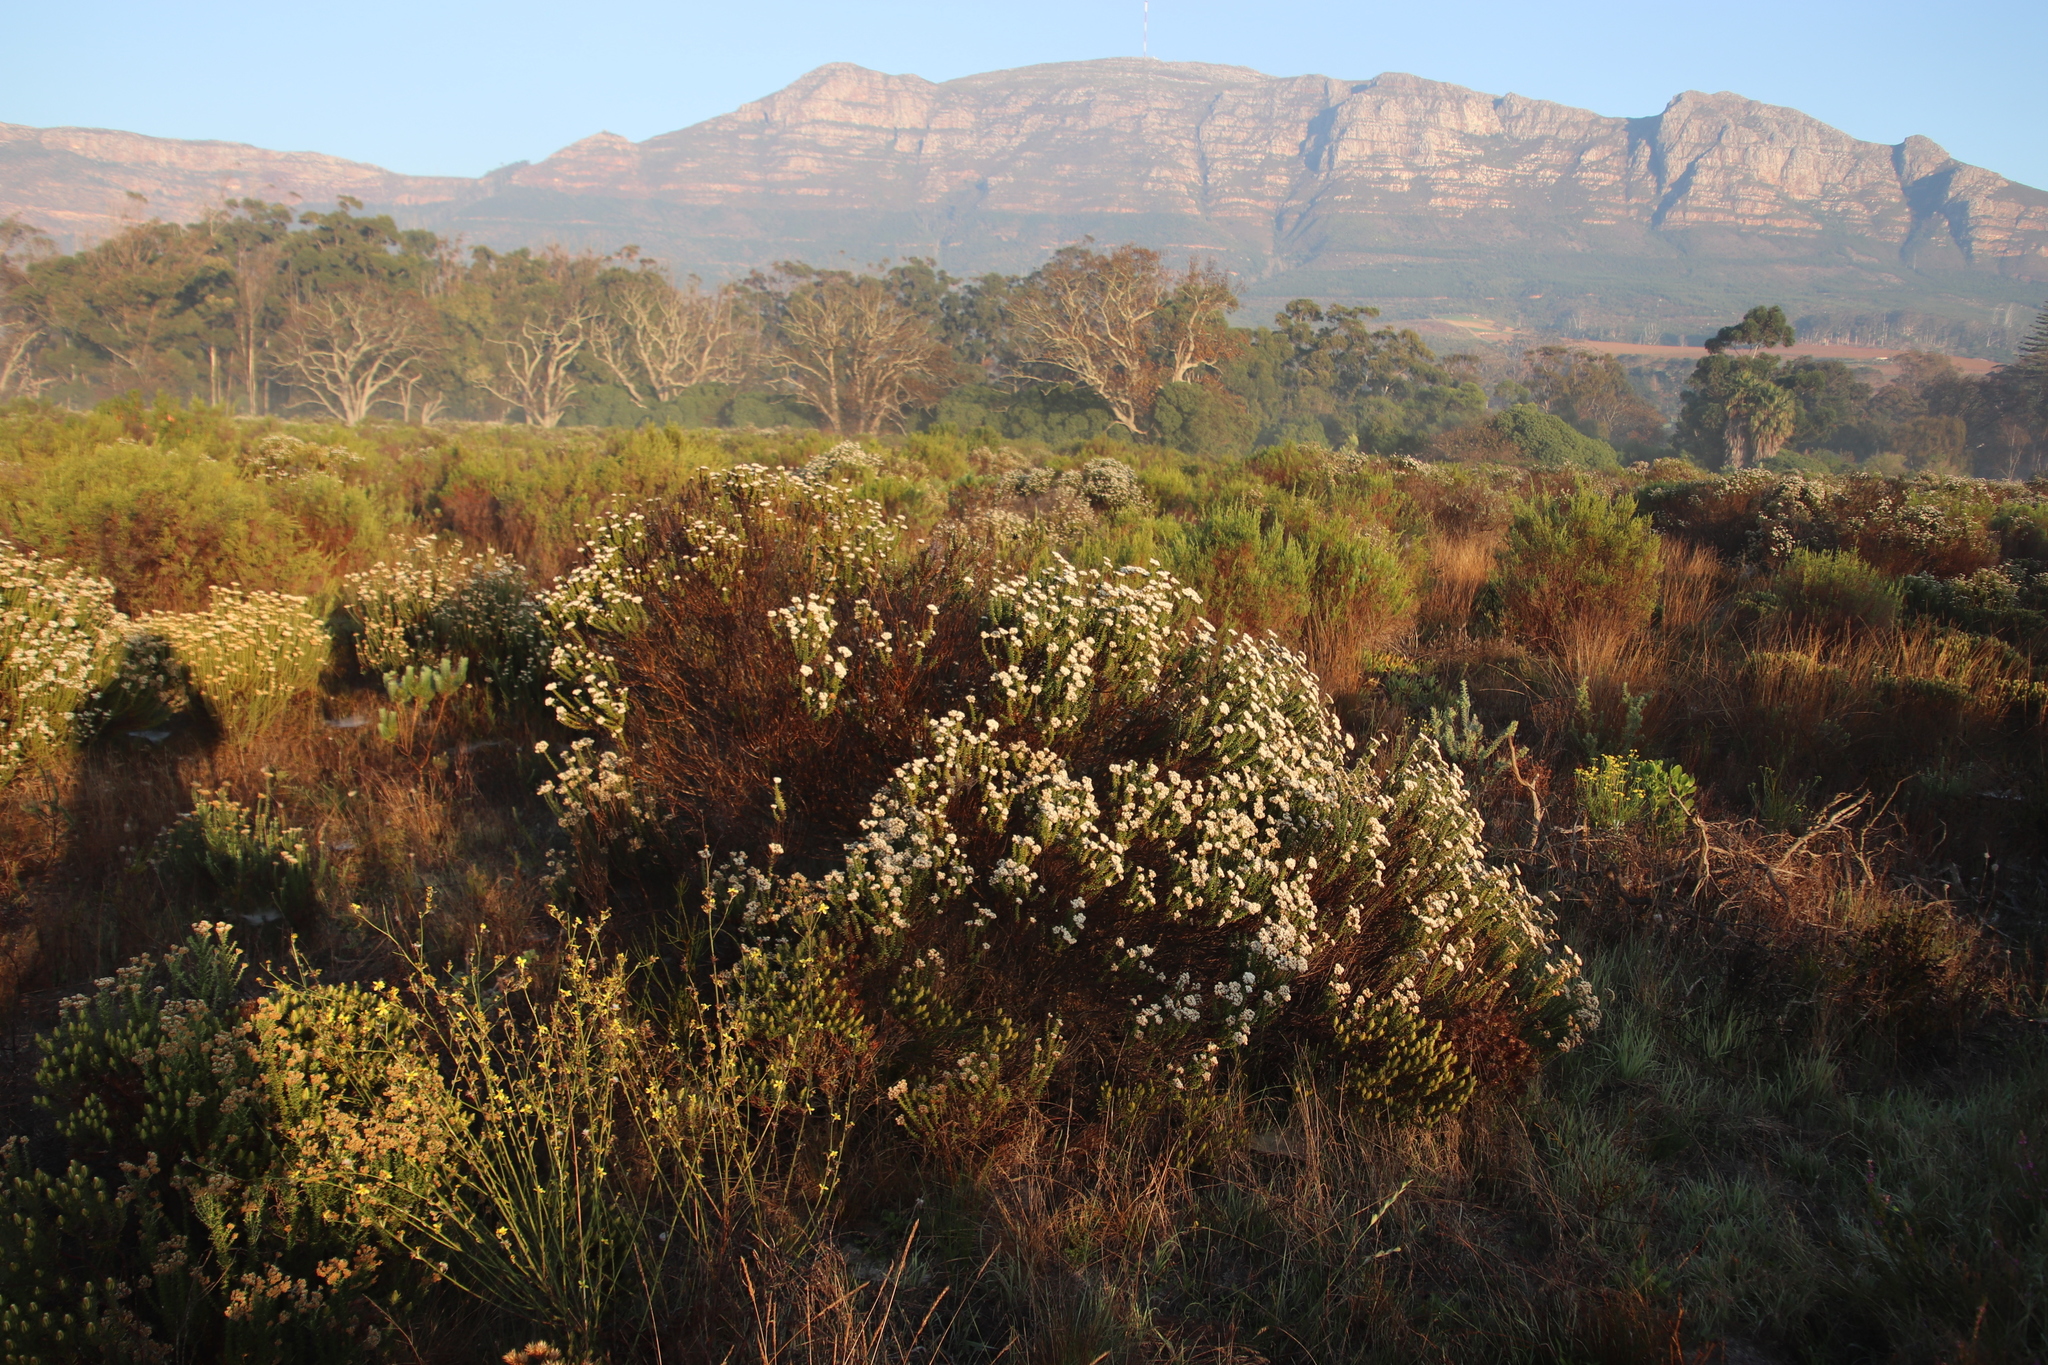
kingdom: Plantae
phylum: Tracheophyta
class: Magnoliopsida
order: Asterales
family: Asteraceae
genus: Metalasia
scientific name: Metalasia densa
